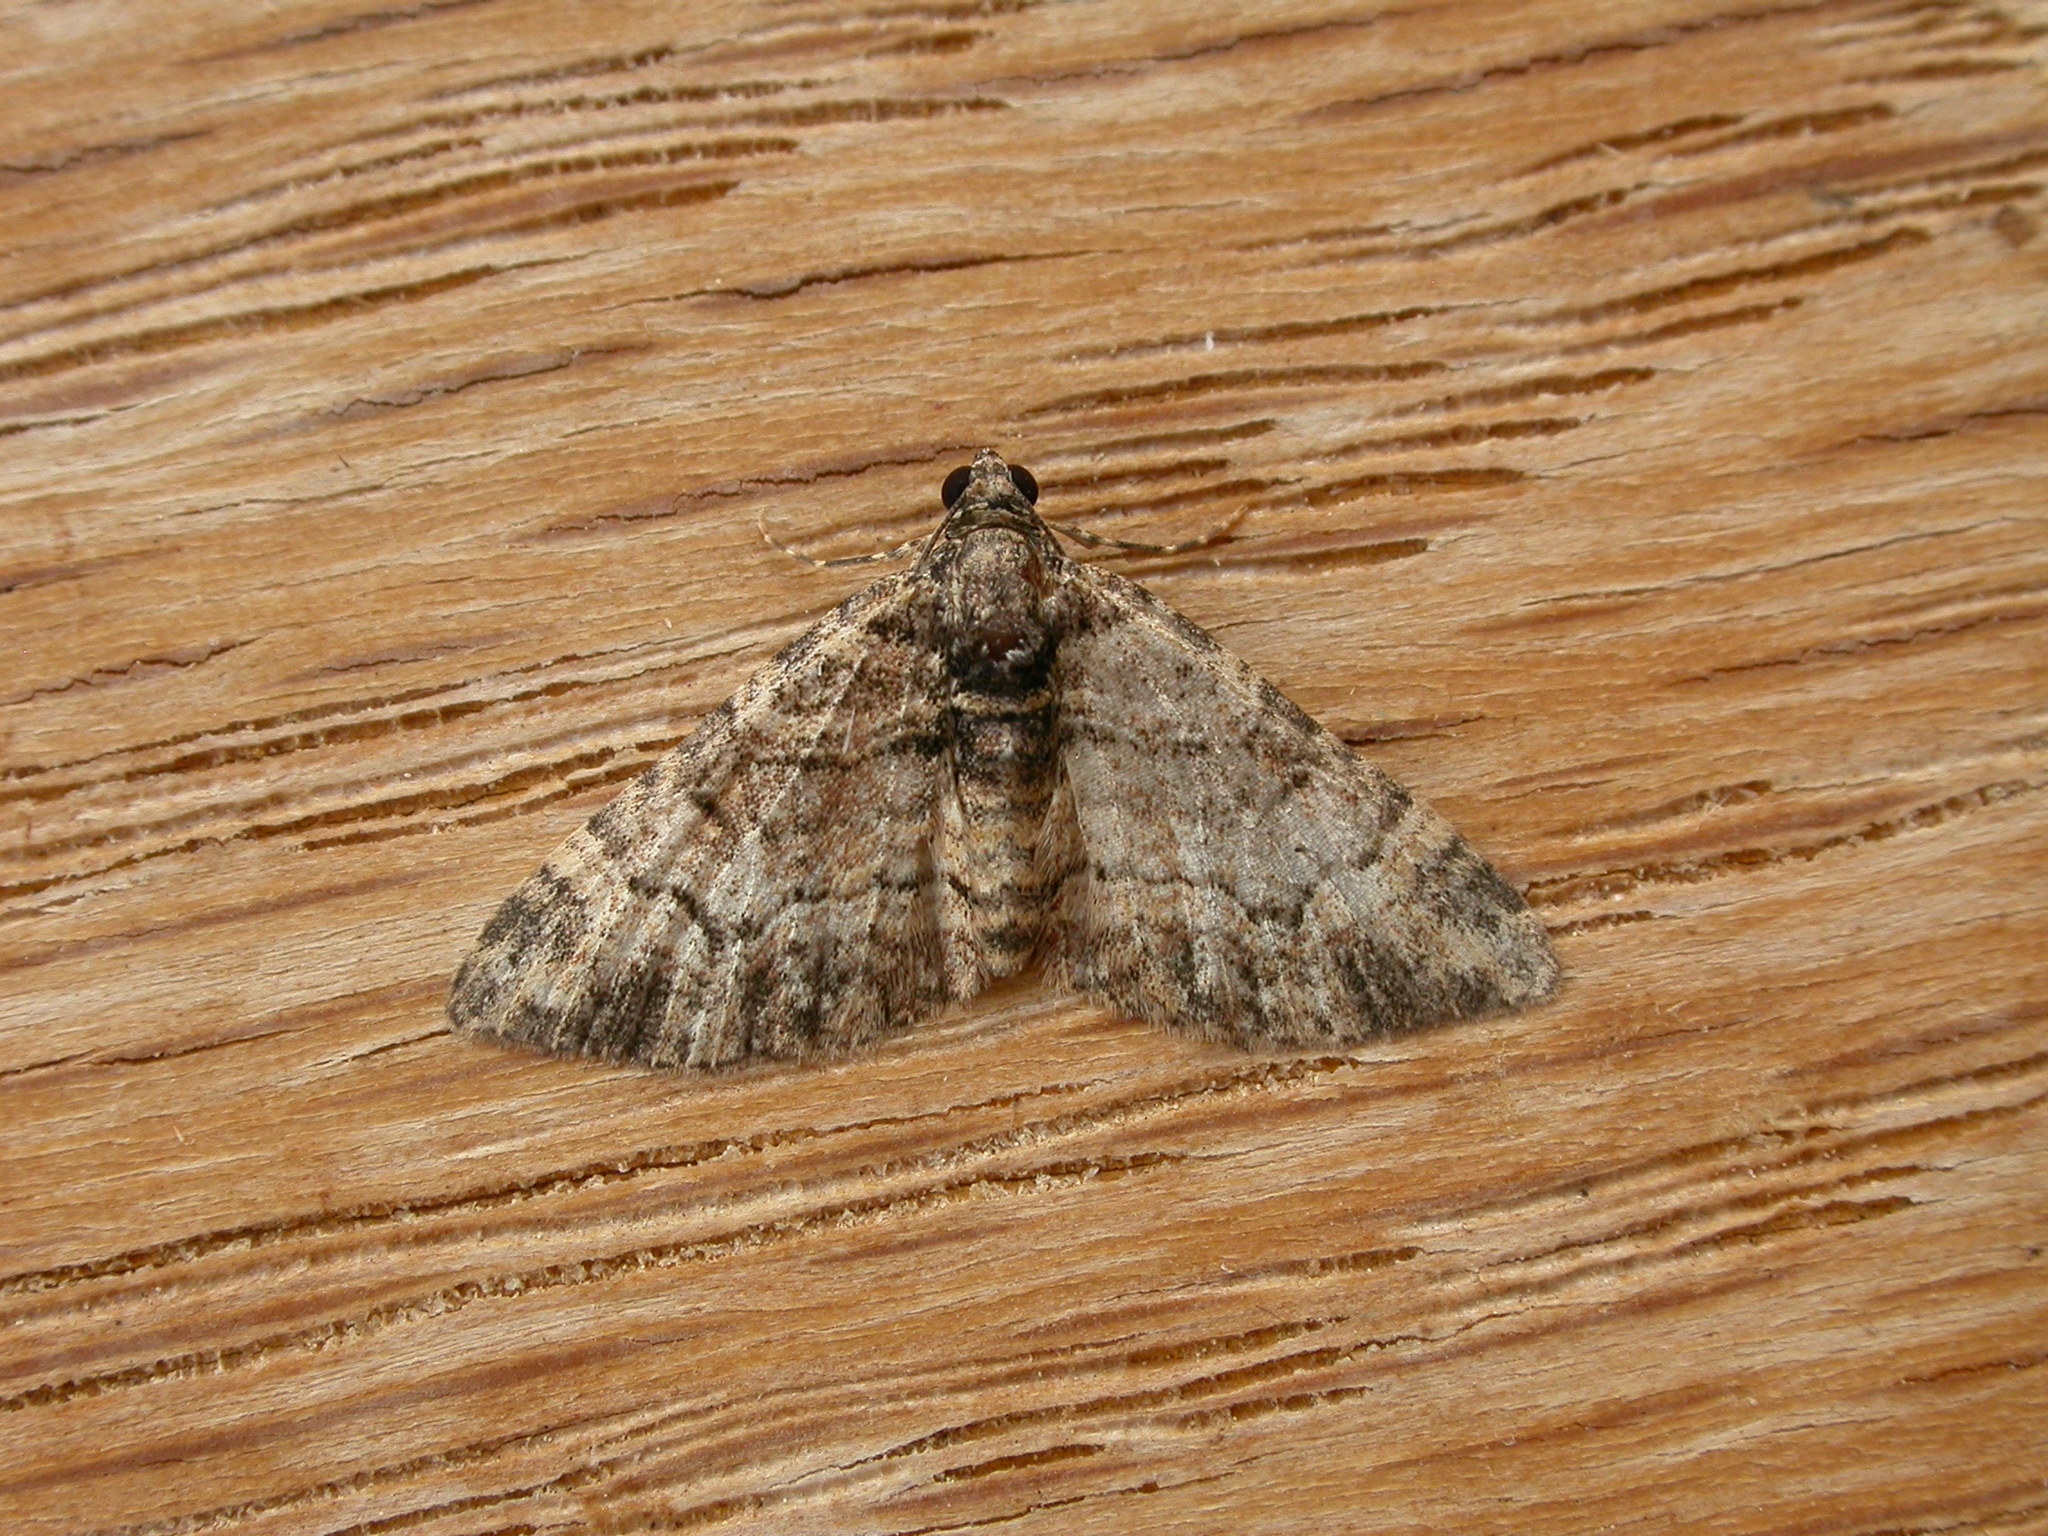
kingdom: Animalia
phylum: Arthropoda
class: Insecta
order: Lepidoptera
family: Geometridae
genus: Epyaxa
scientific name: Epyaxa sodaliata
